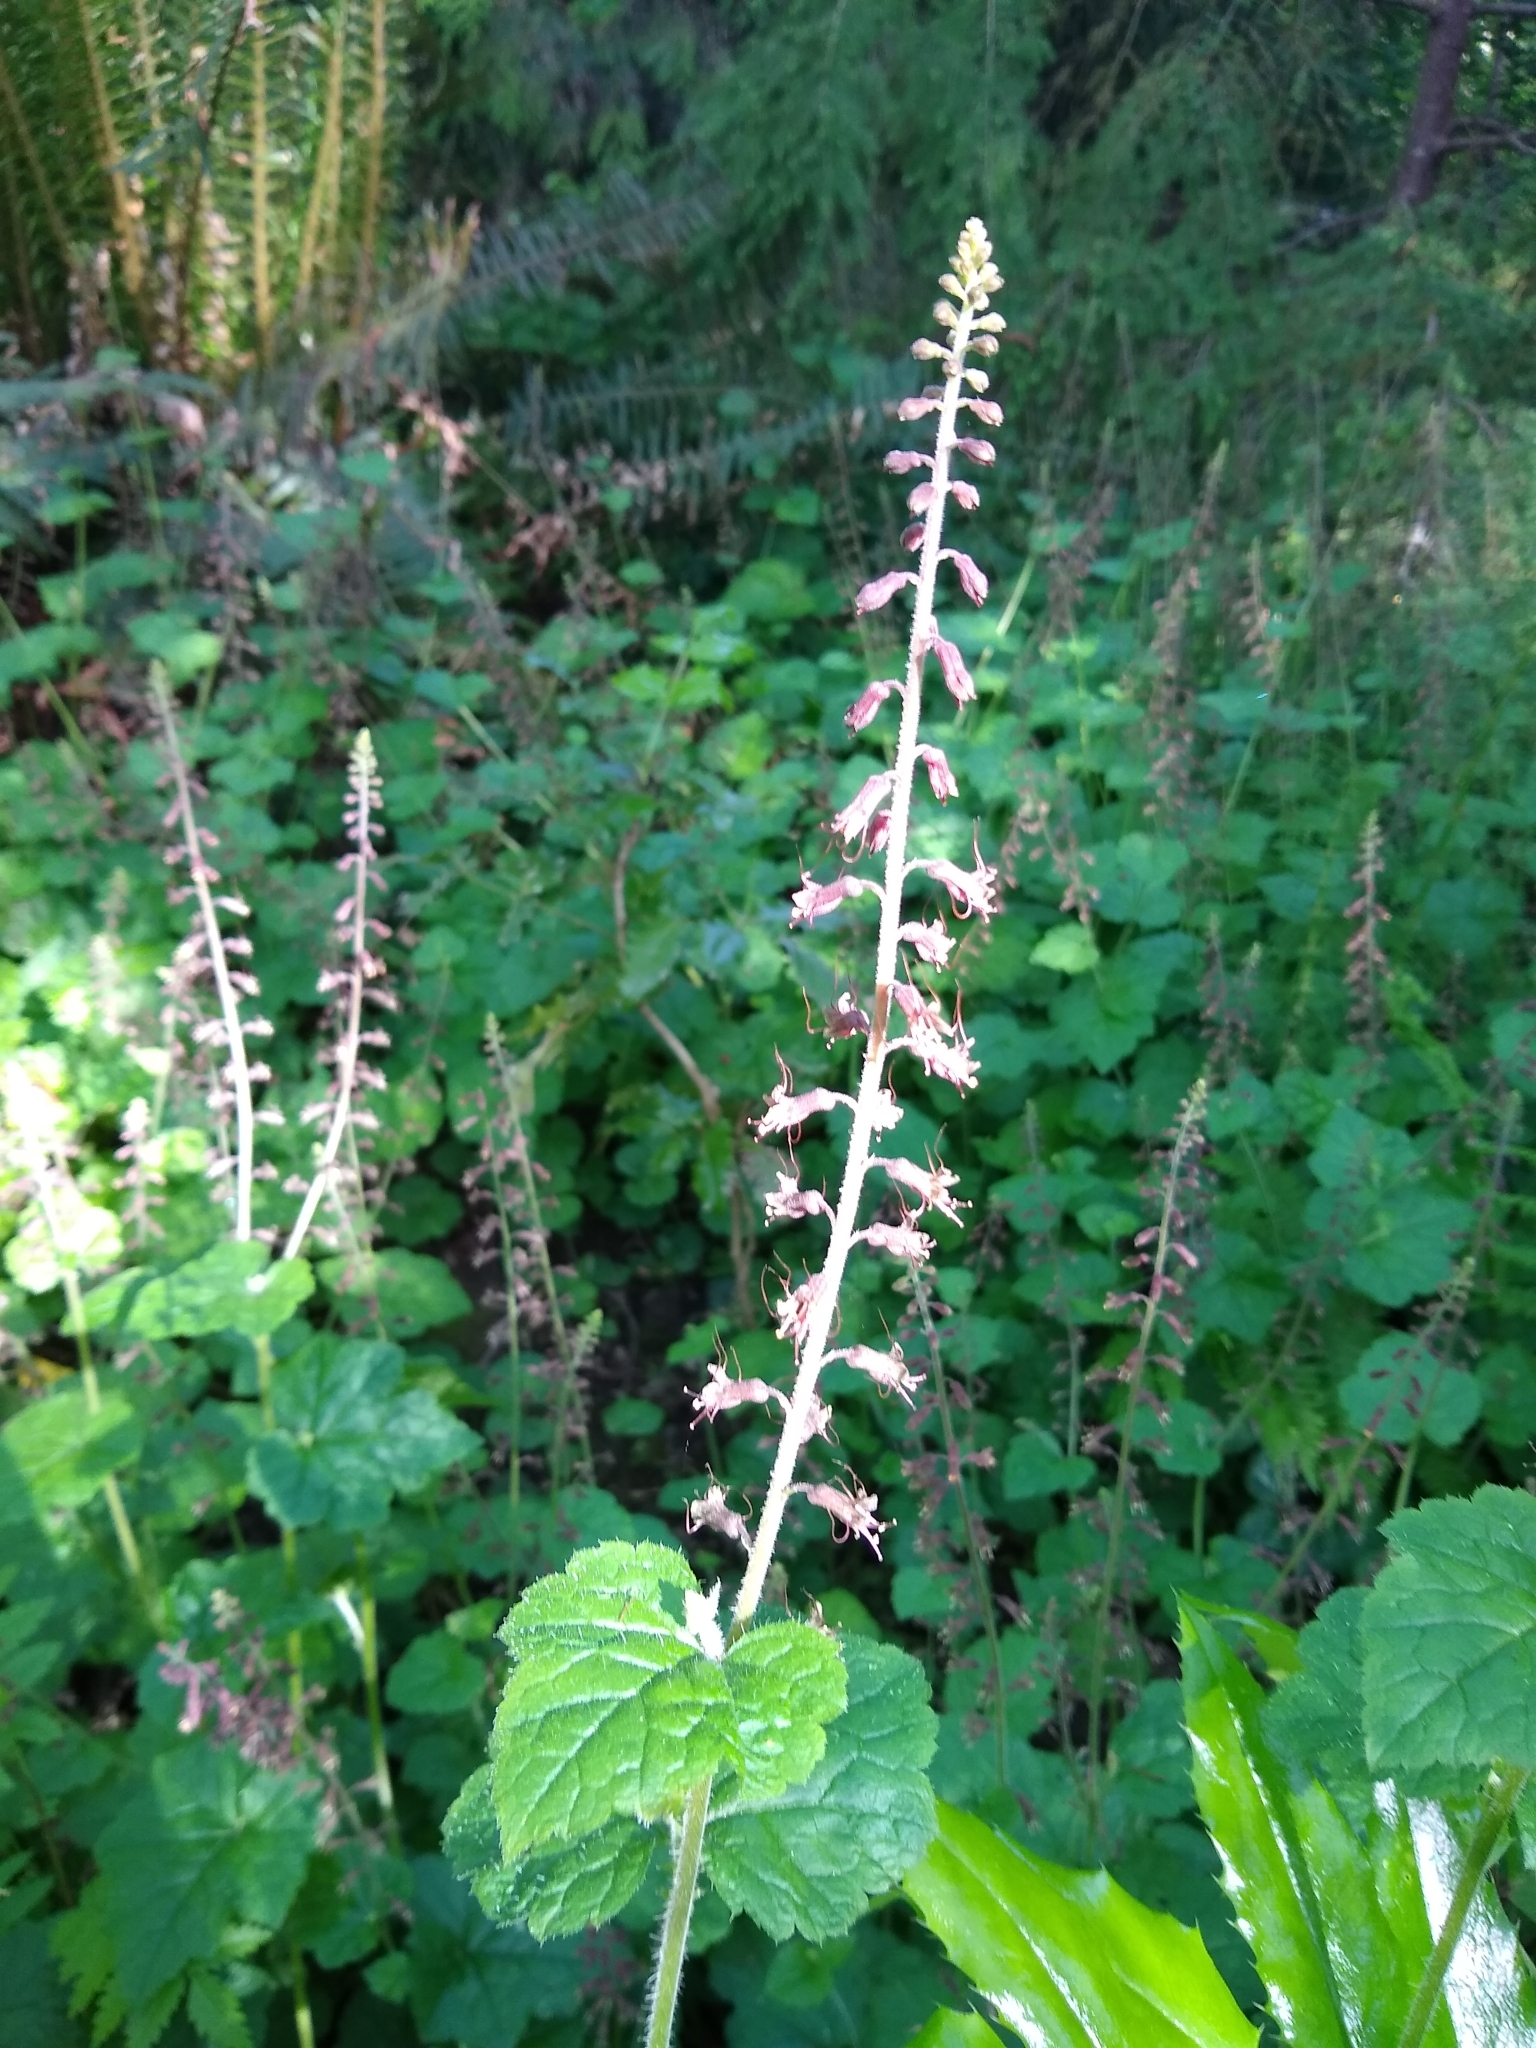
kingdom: Plantae
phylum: Tracheophyta
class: Magnoliopsida
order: Saxifragales
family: Saxifragaceae
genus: Tolmiea
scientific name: Tolmiea menziesii
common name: Pick-a-back-plant
